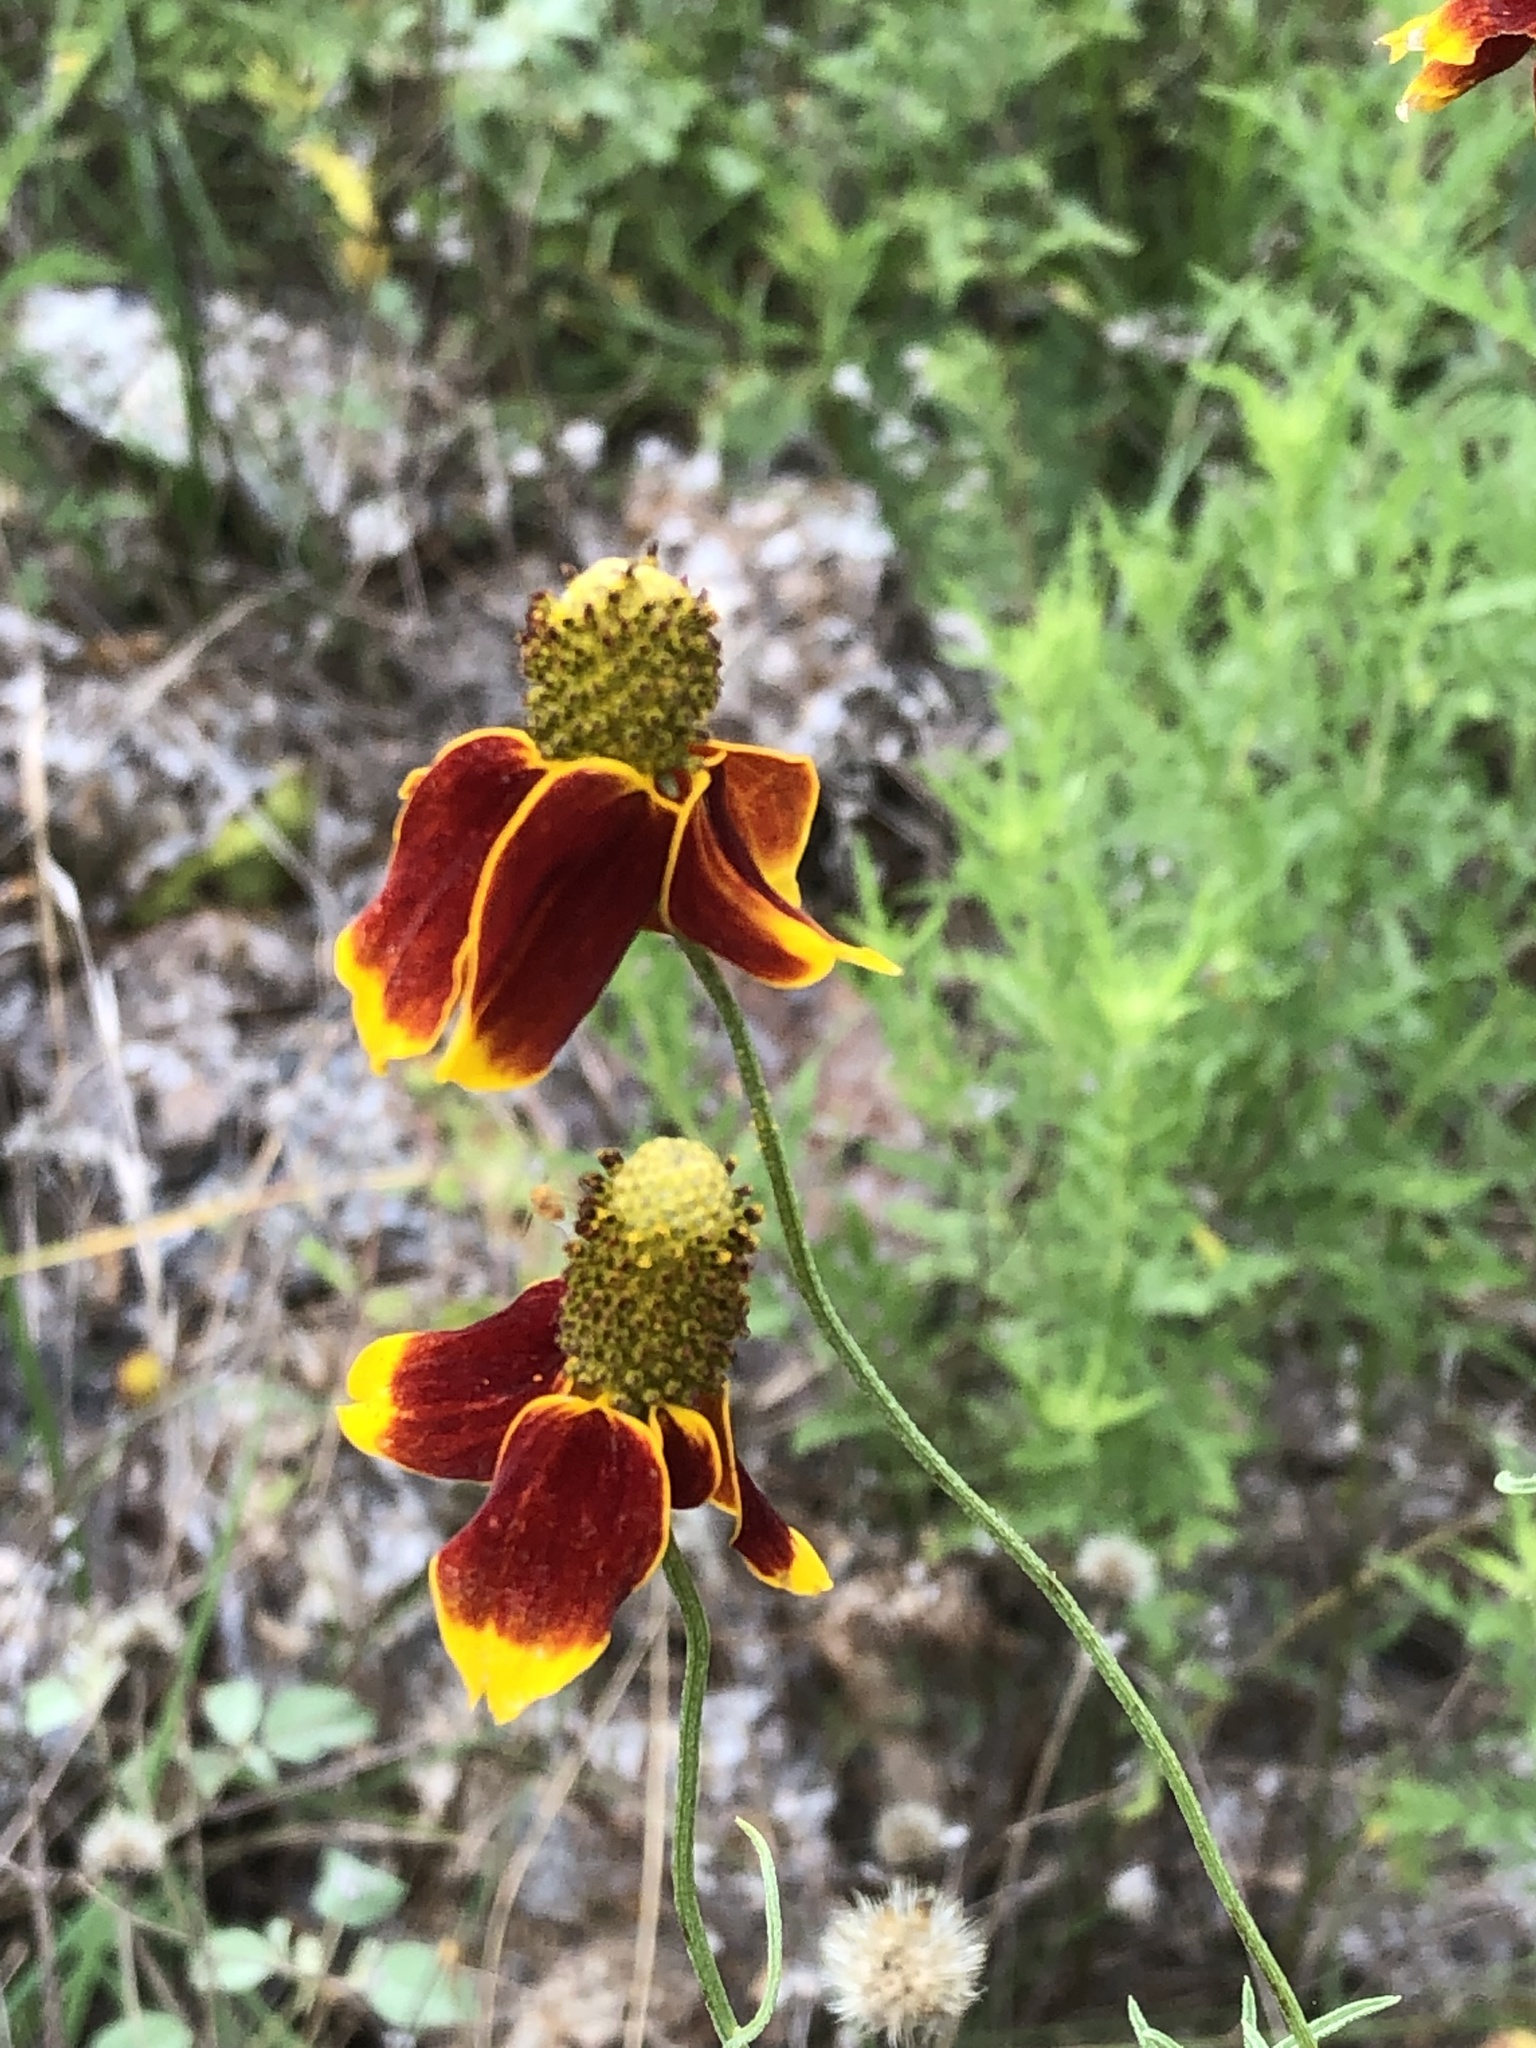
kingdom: Plantae
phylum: Tracheophyta
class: Magnoliopsida
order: Asterales
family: Asteraceae
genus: Ratibida
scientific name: Ratibida columnifera
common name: Prairie coneflower
